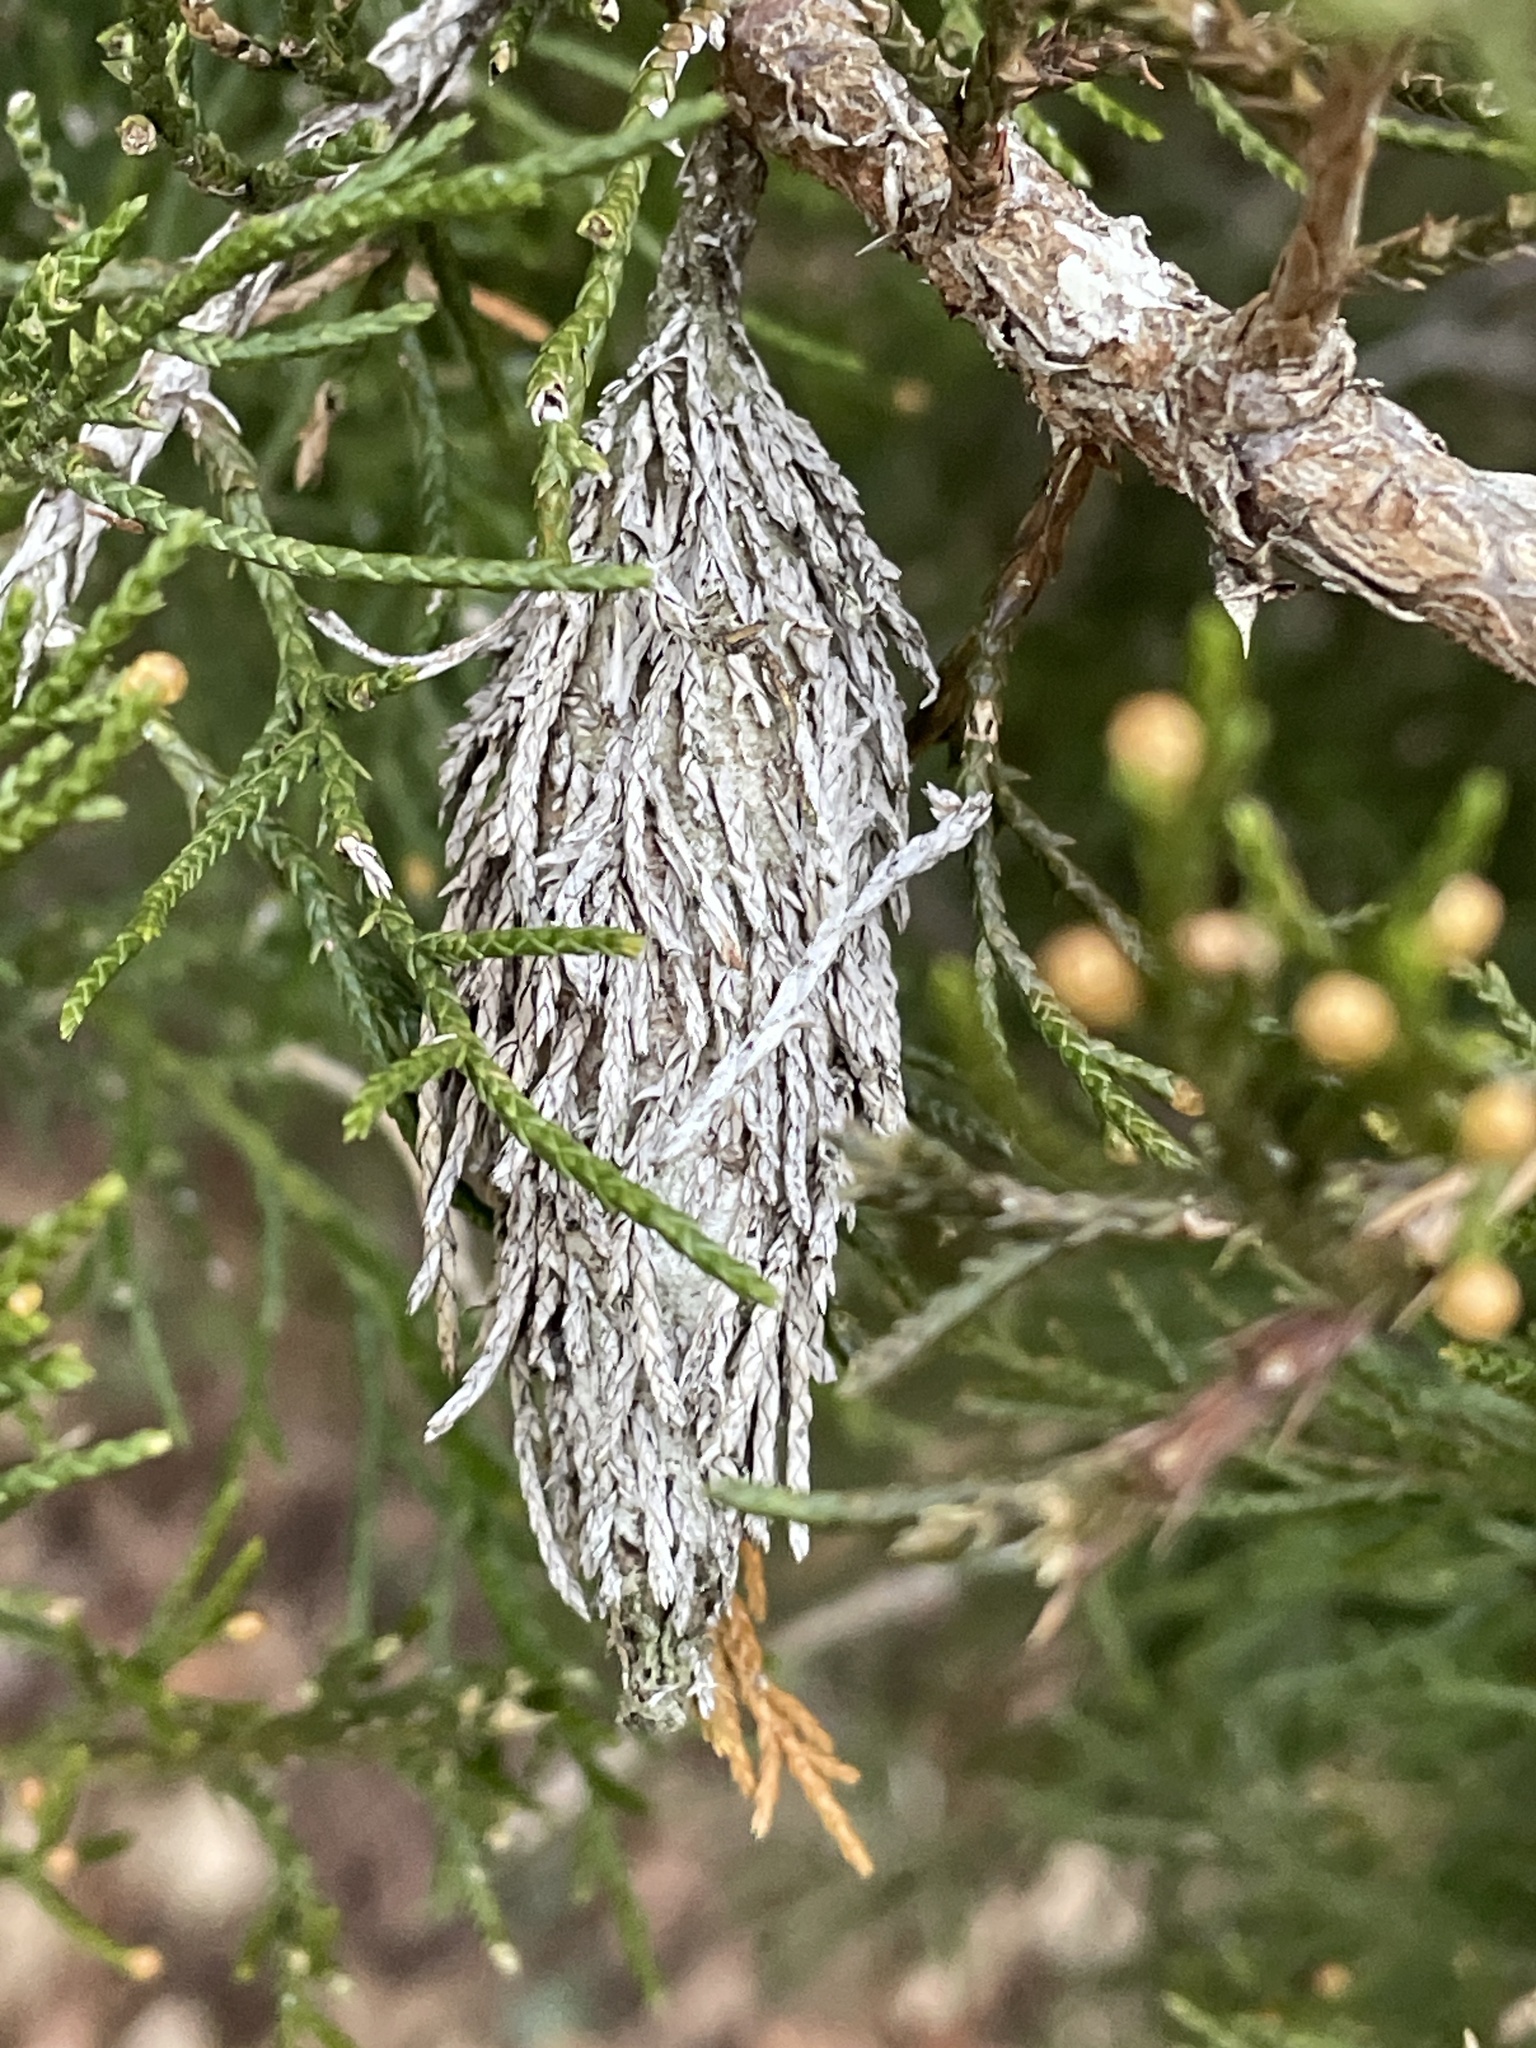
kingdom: Animalia
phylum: Arthropoda
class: Insecta
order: Lepidoptera
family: Psychidae
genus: Thyridopteryx
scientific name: Thyridopteryx ephemeraeformis
